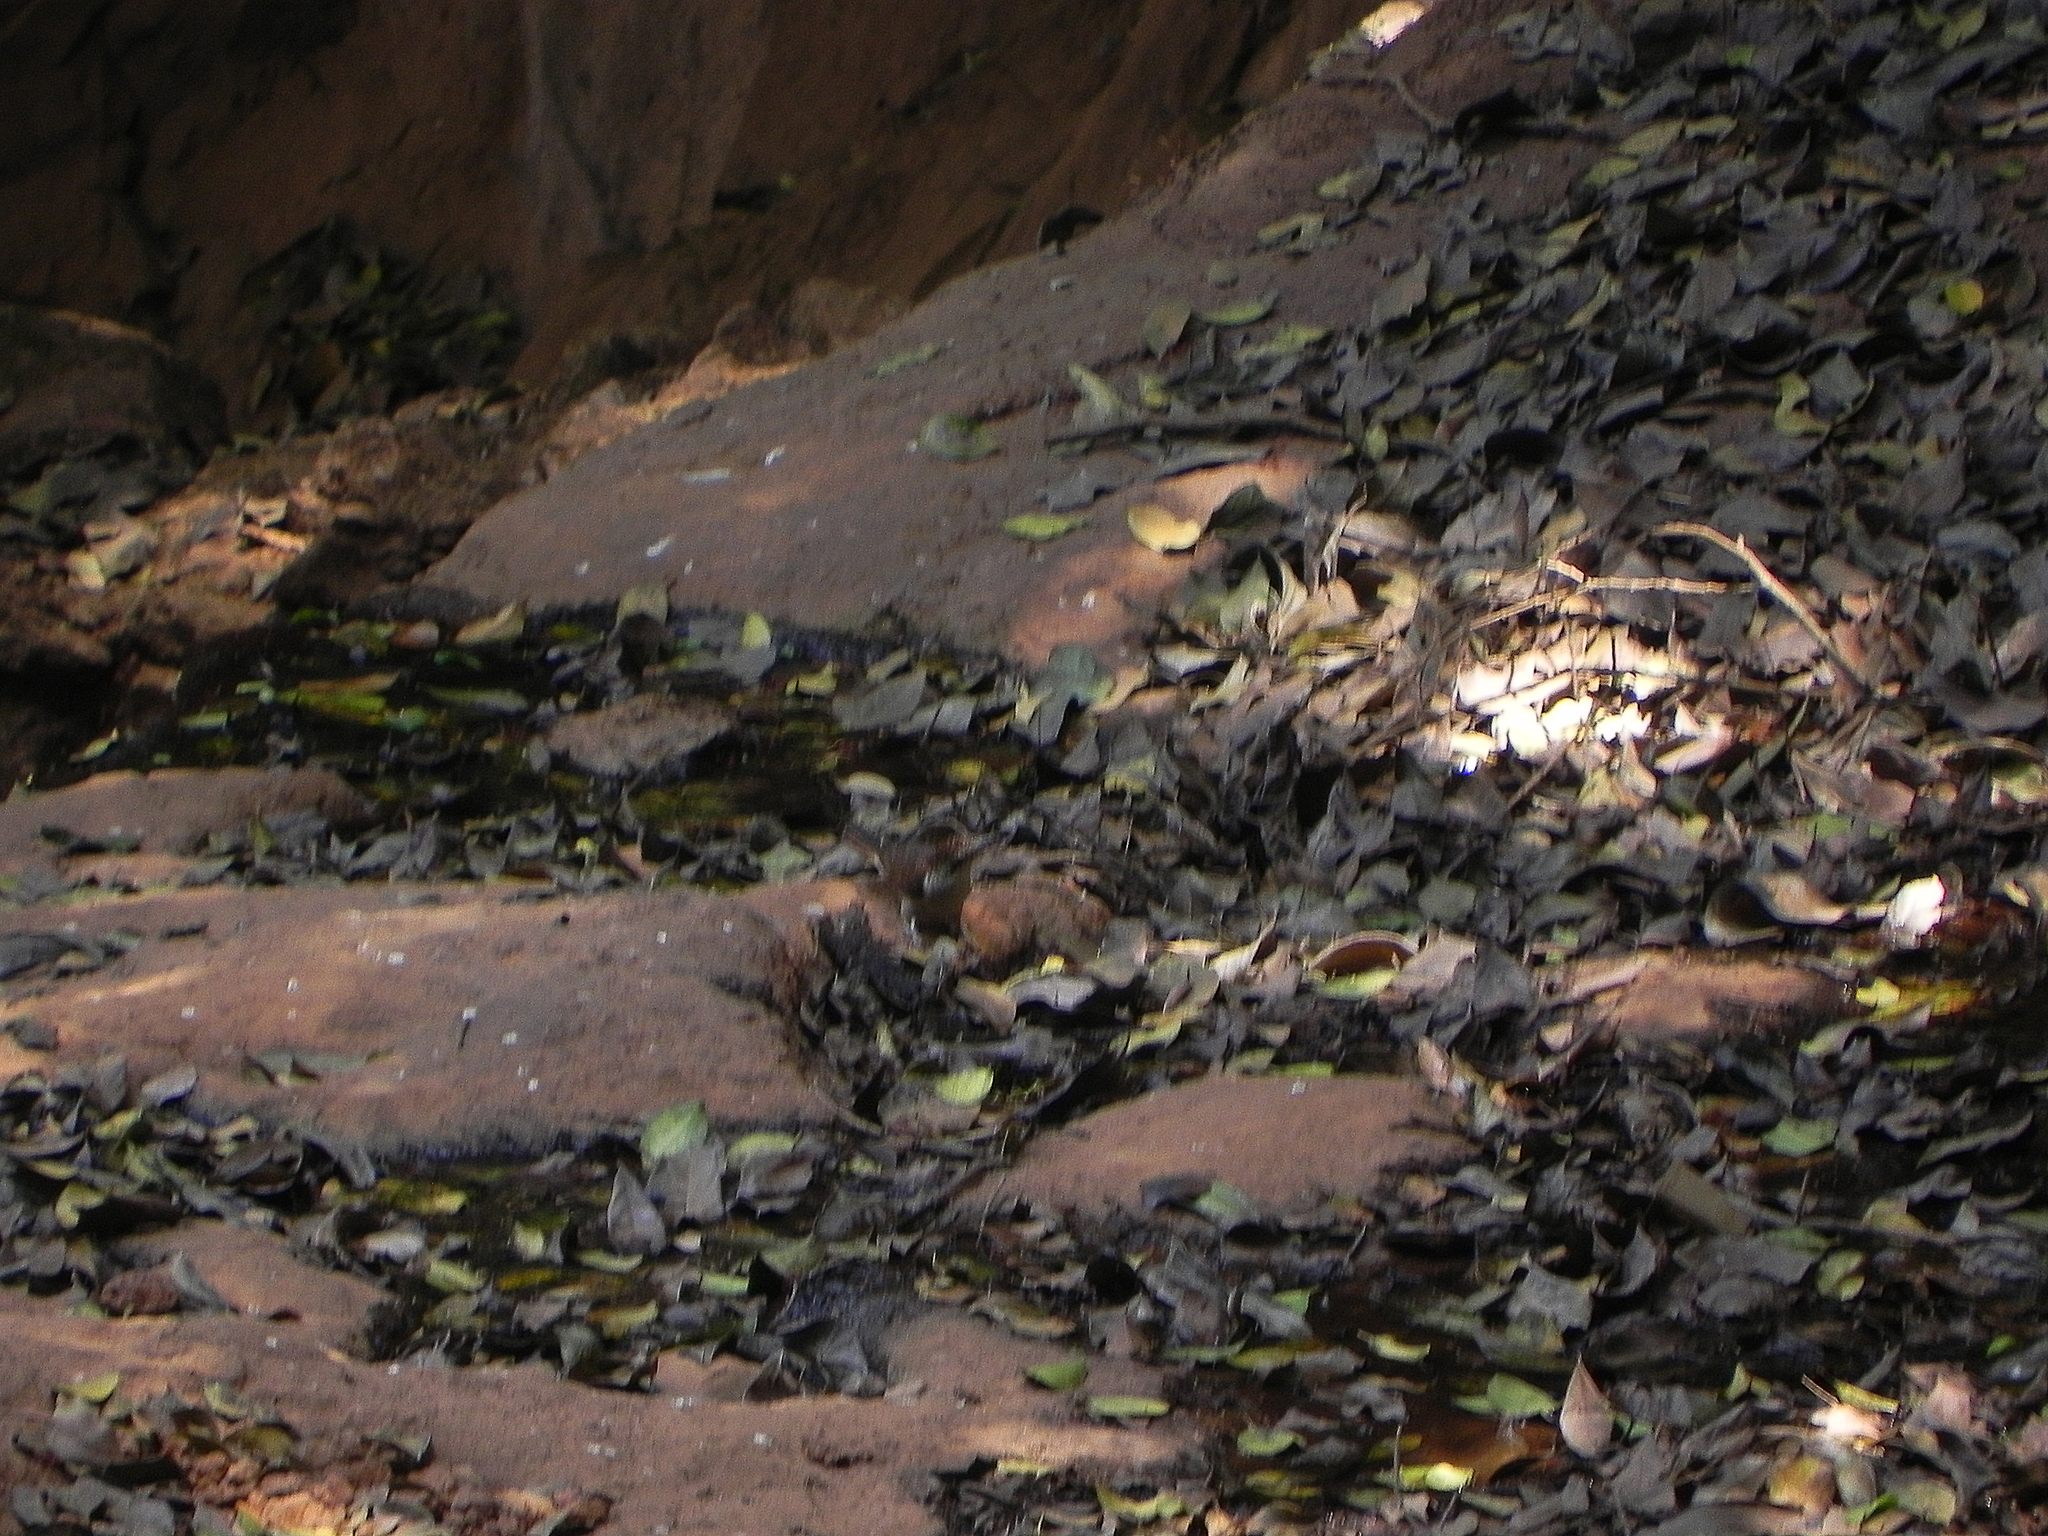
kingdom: Animalia
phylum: Chordata
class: Aves
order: Cuculiformes
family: Cuculidae
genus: Cacomantis
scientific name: Cacomantis sonneratii
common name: Banded bay cuckoo
